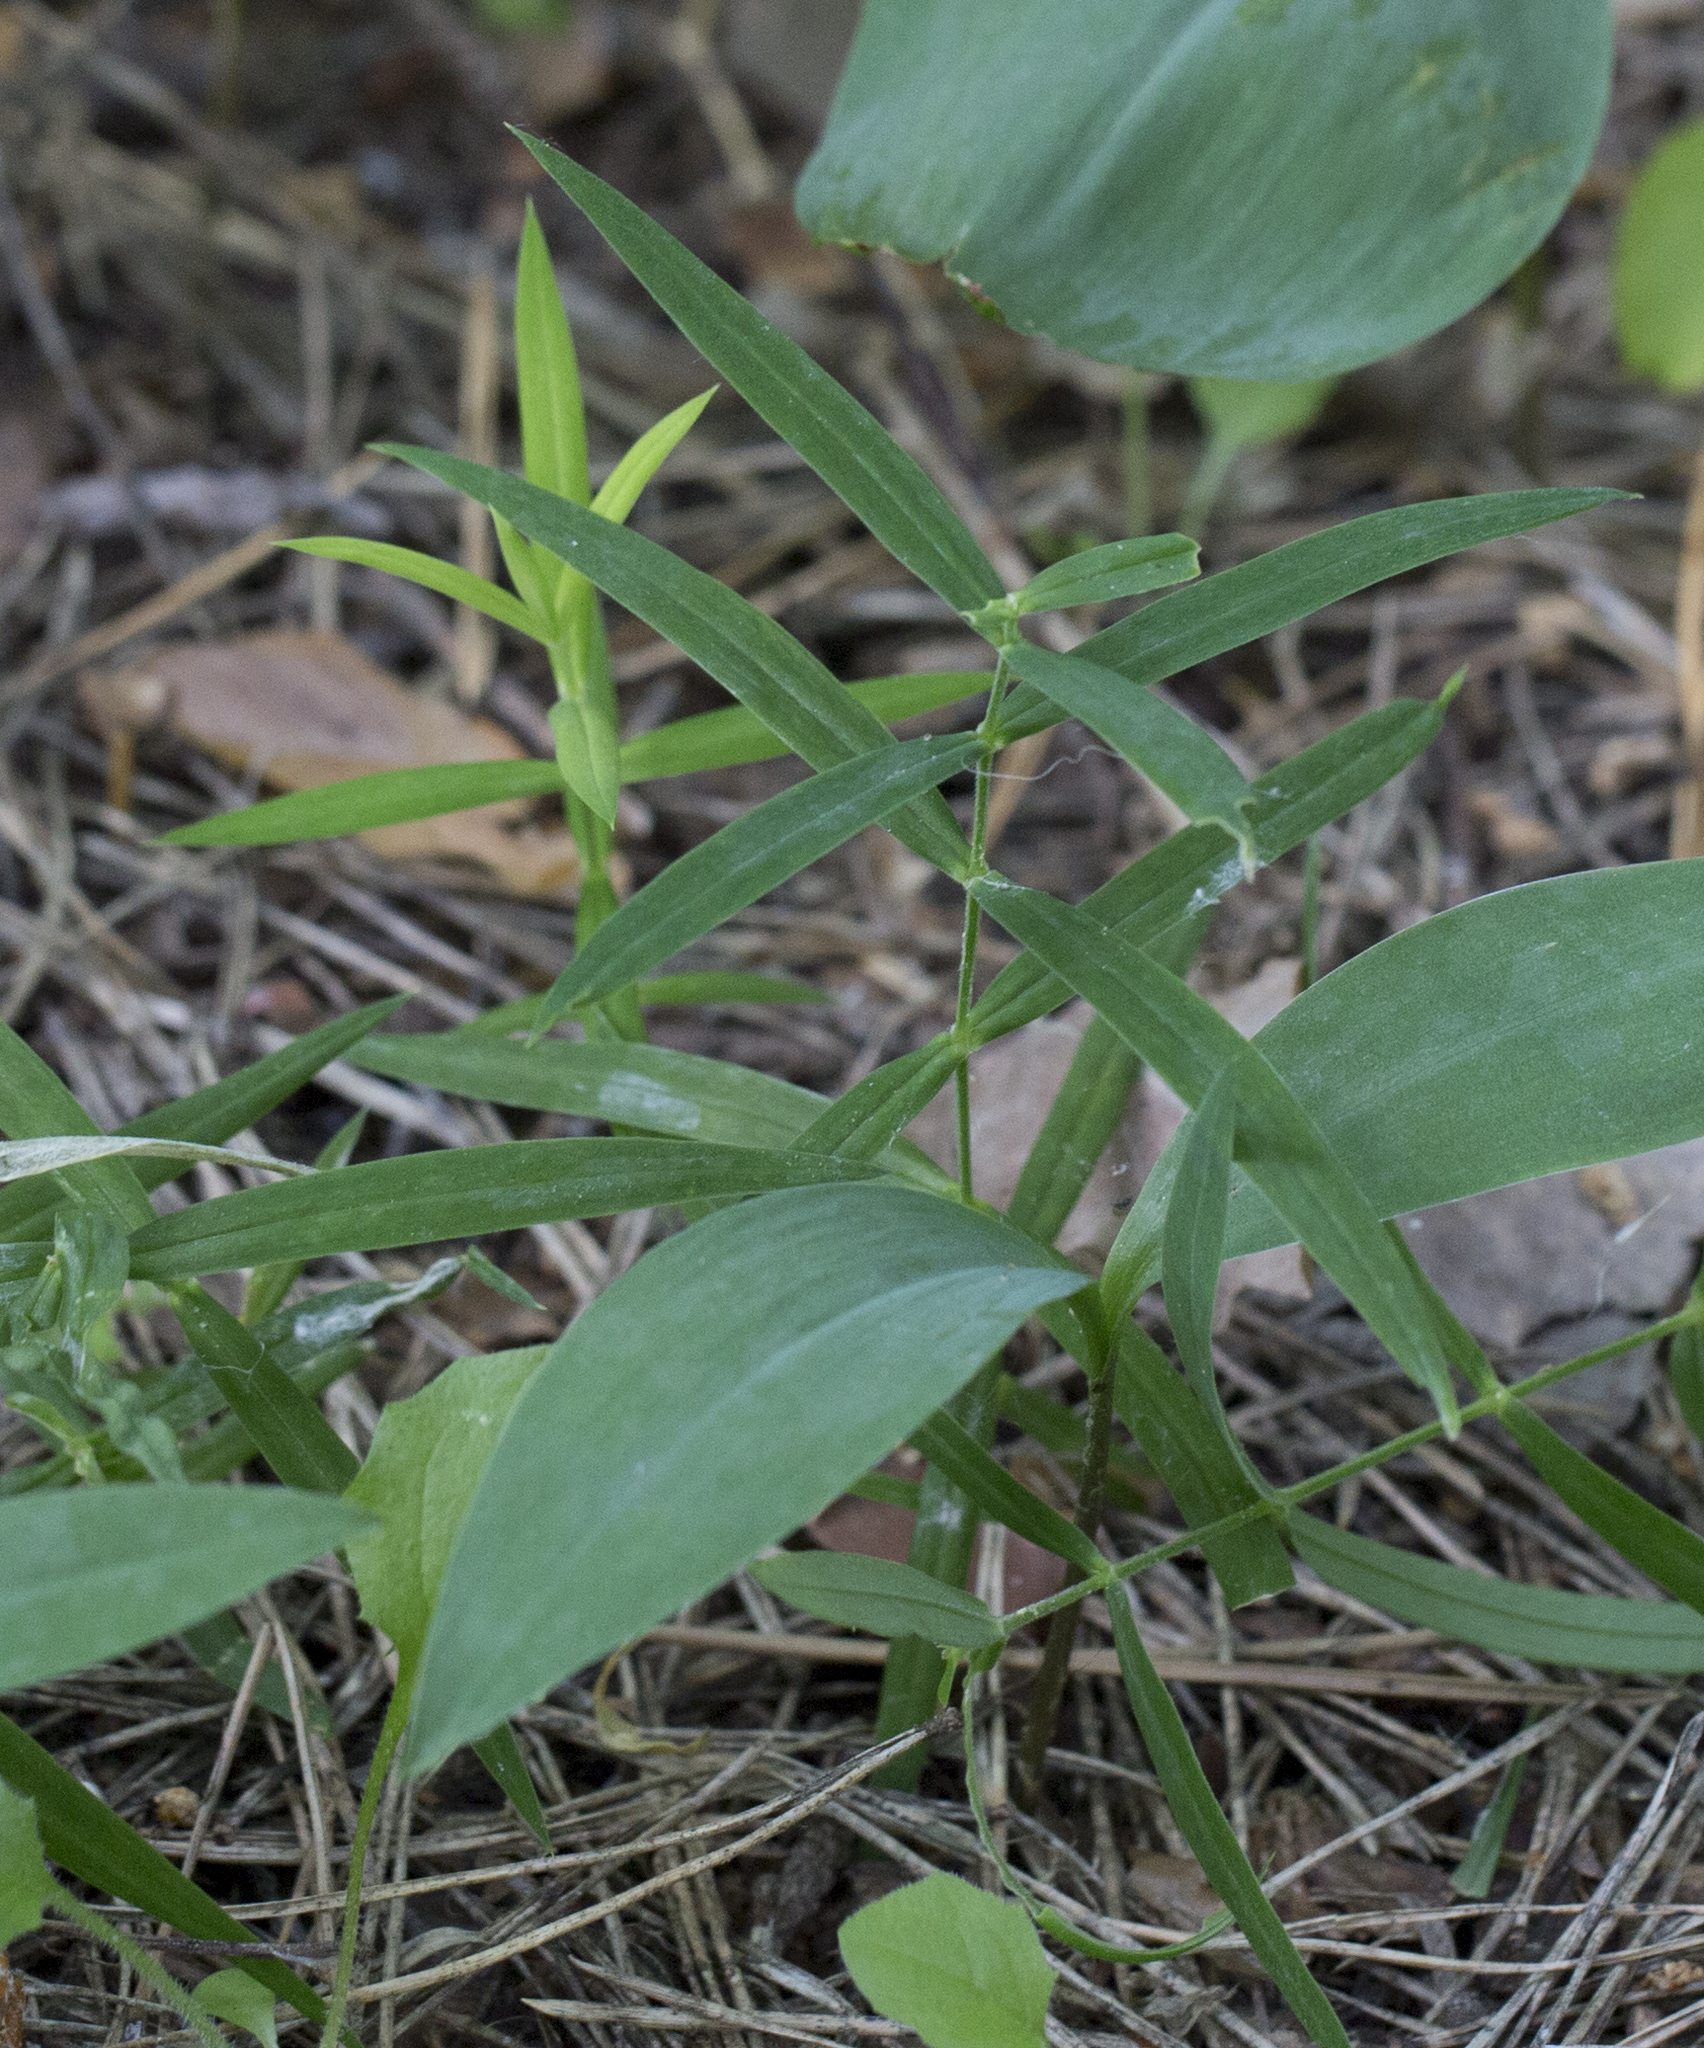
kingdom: Plantae
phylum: Tracheophyta
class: Magnoliopsida
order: Caryophyllales
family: Caryophyllaceae
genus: Rabelera
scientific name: Rabelera holostea
